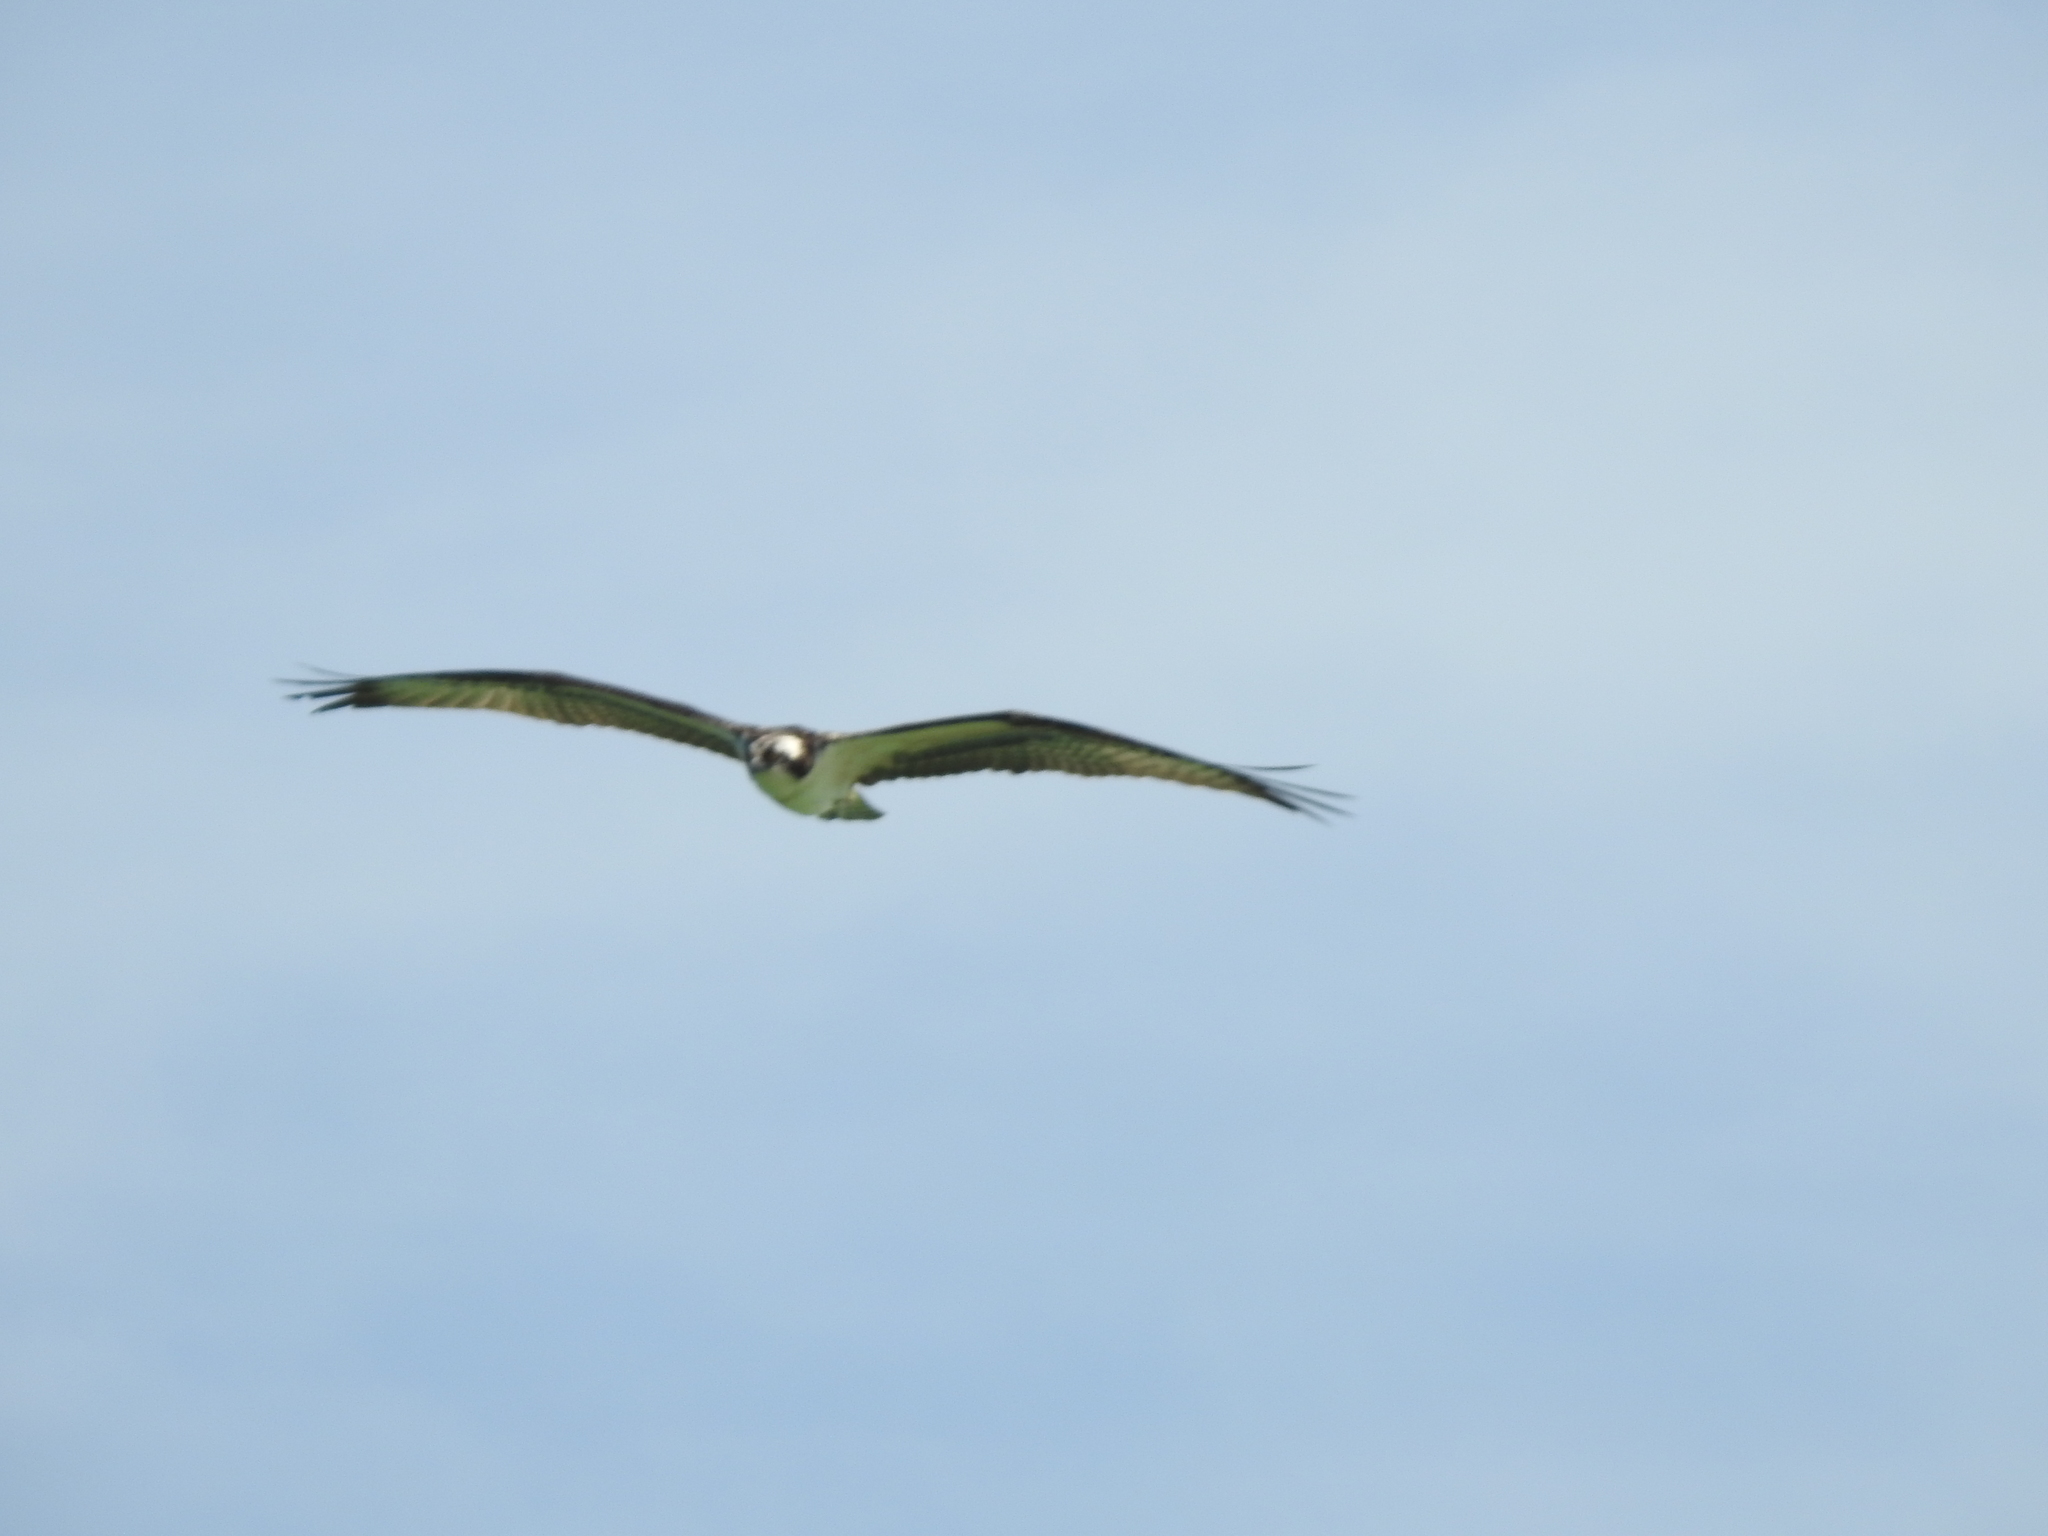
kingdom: Animalia
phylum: Chordata
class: Aves
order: Accipitriformes
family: Pandionidae
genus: Pandion
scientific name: Pandion haliaetus
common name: Osprey
